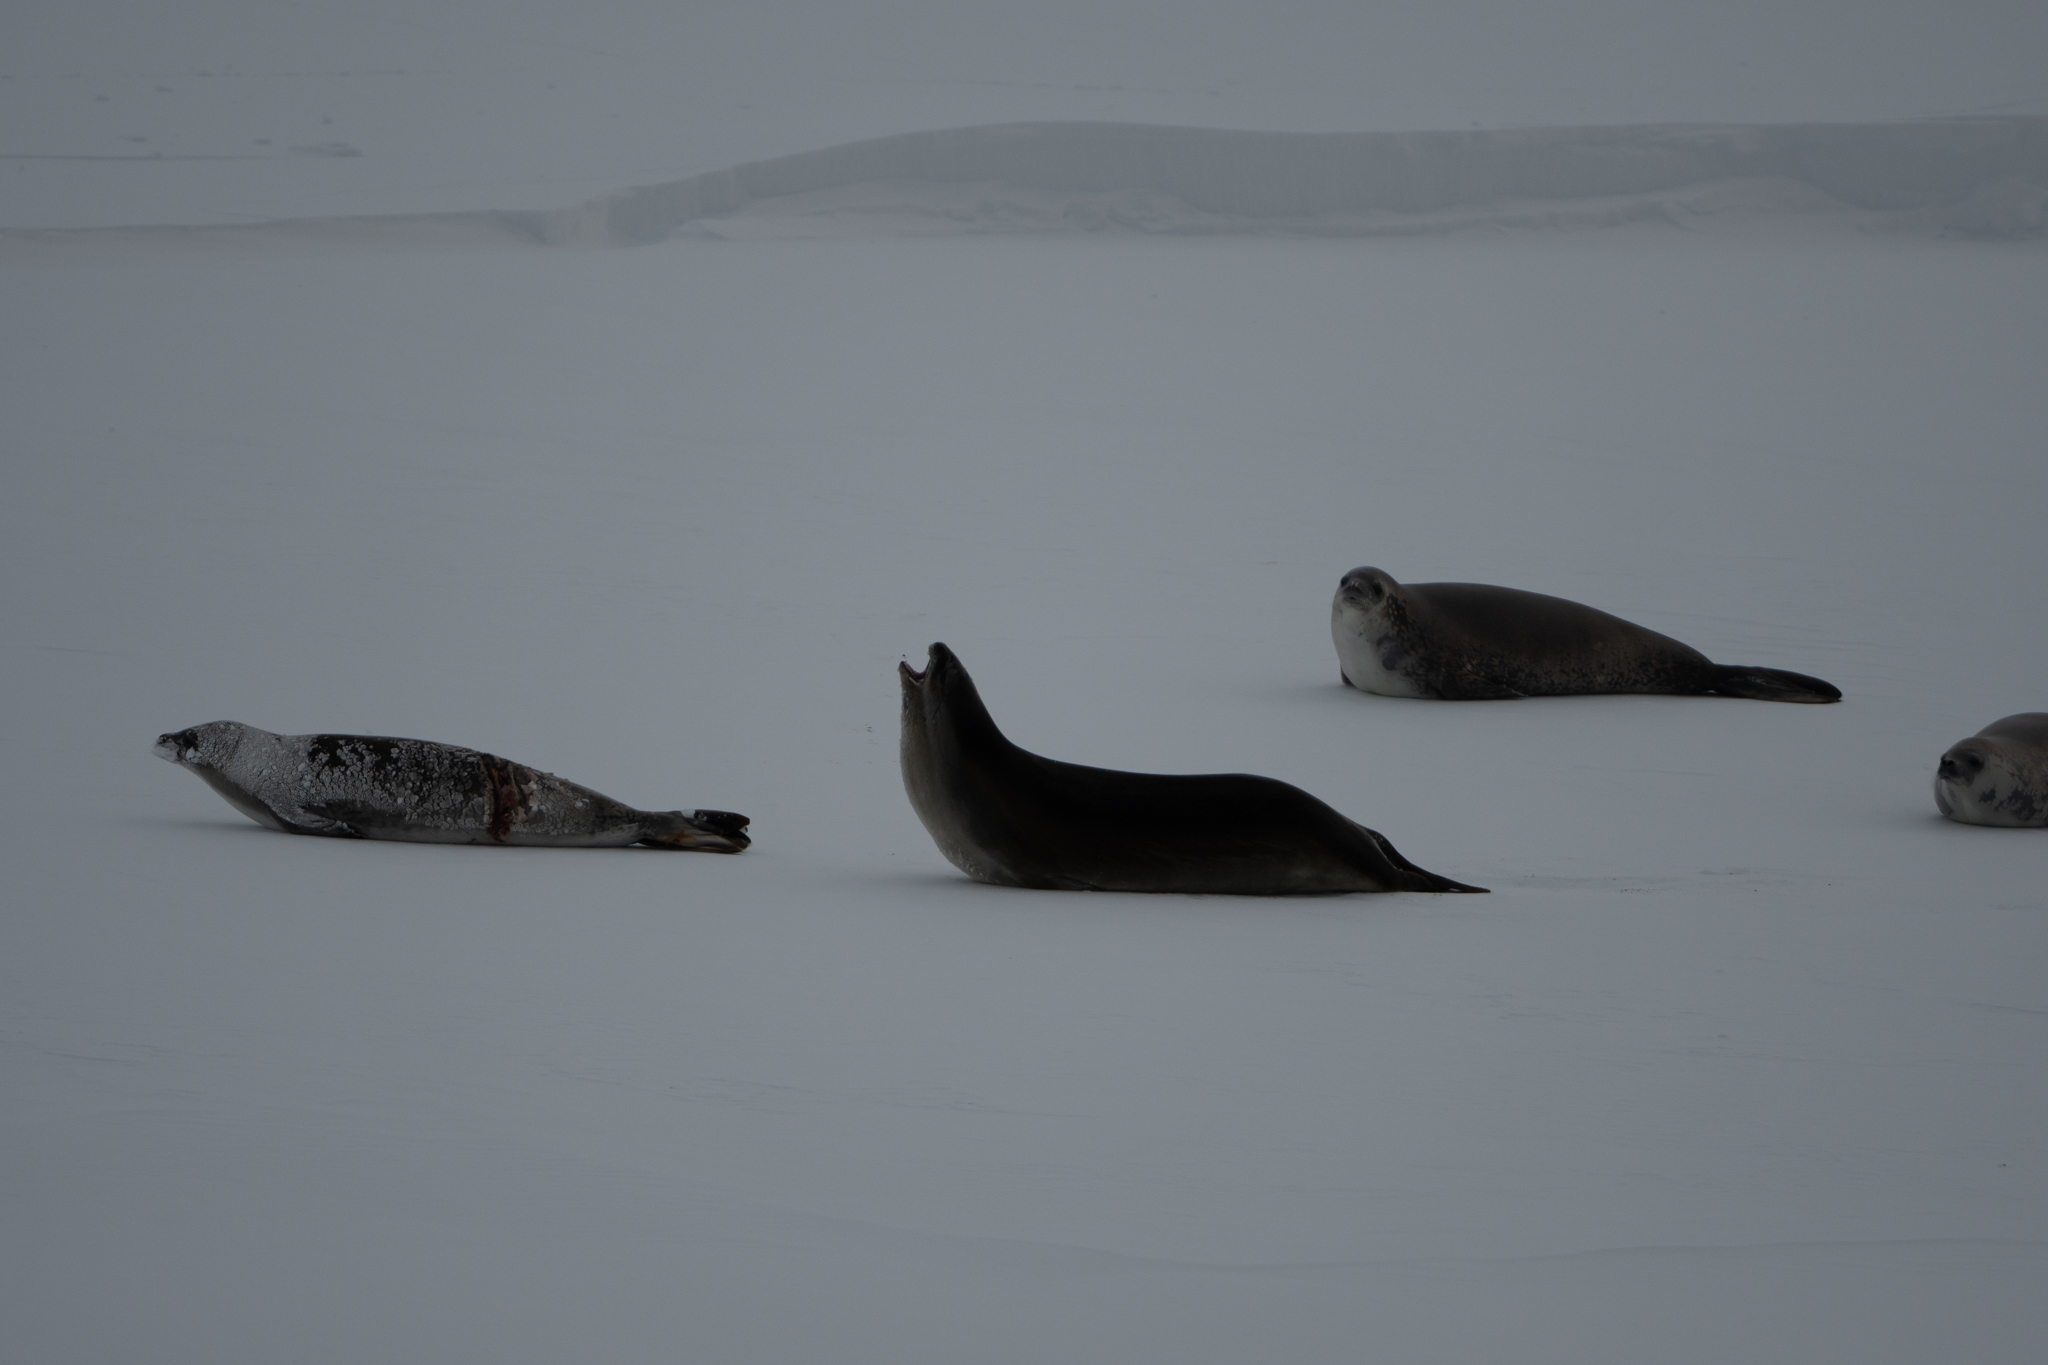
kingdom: Animalia
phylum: Chordata
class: Mammalia
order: Carnivora
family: Phocidae
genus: Ommatophoca
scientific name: Ommatophoca rossii
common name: Ross seal
